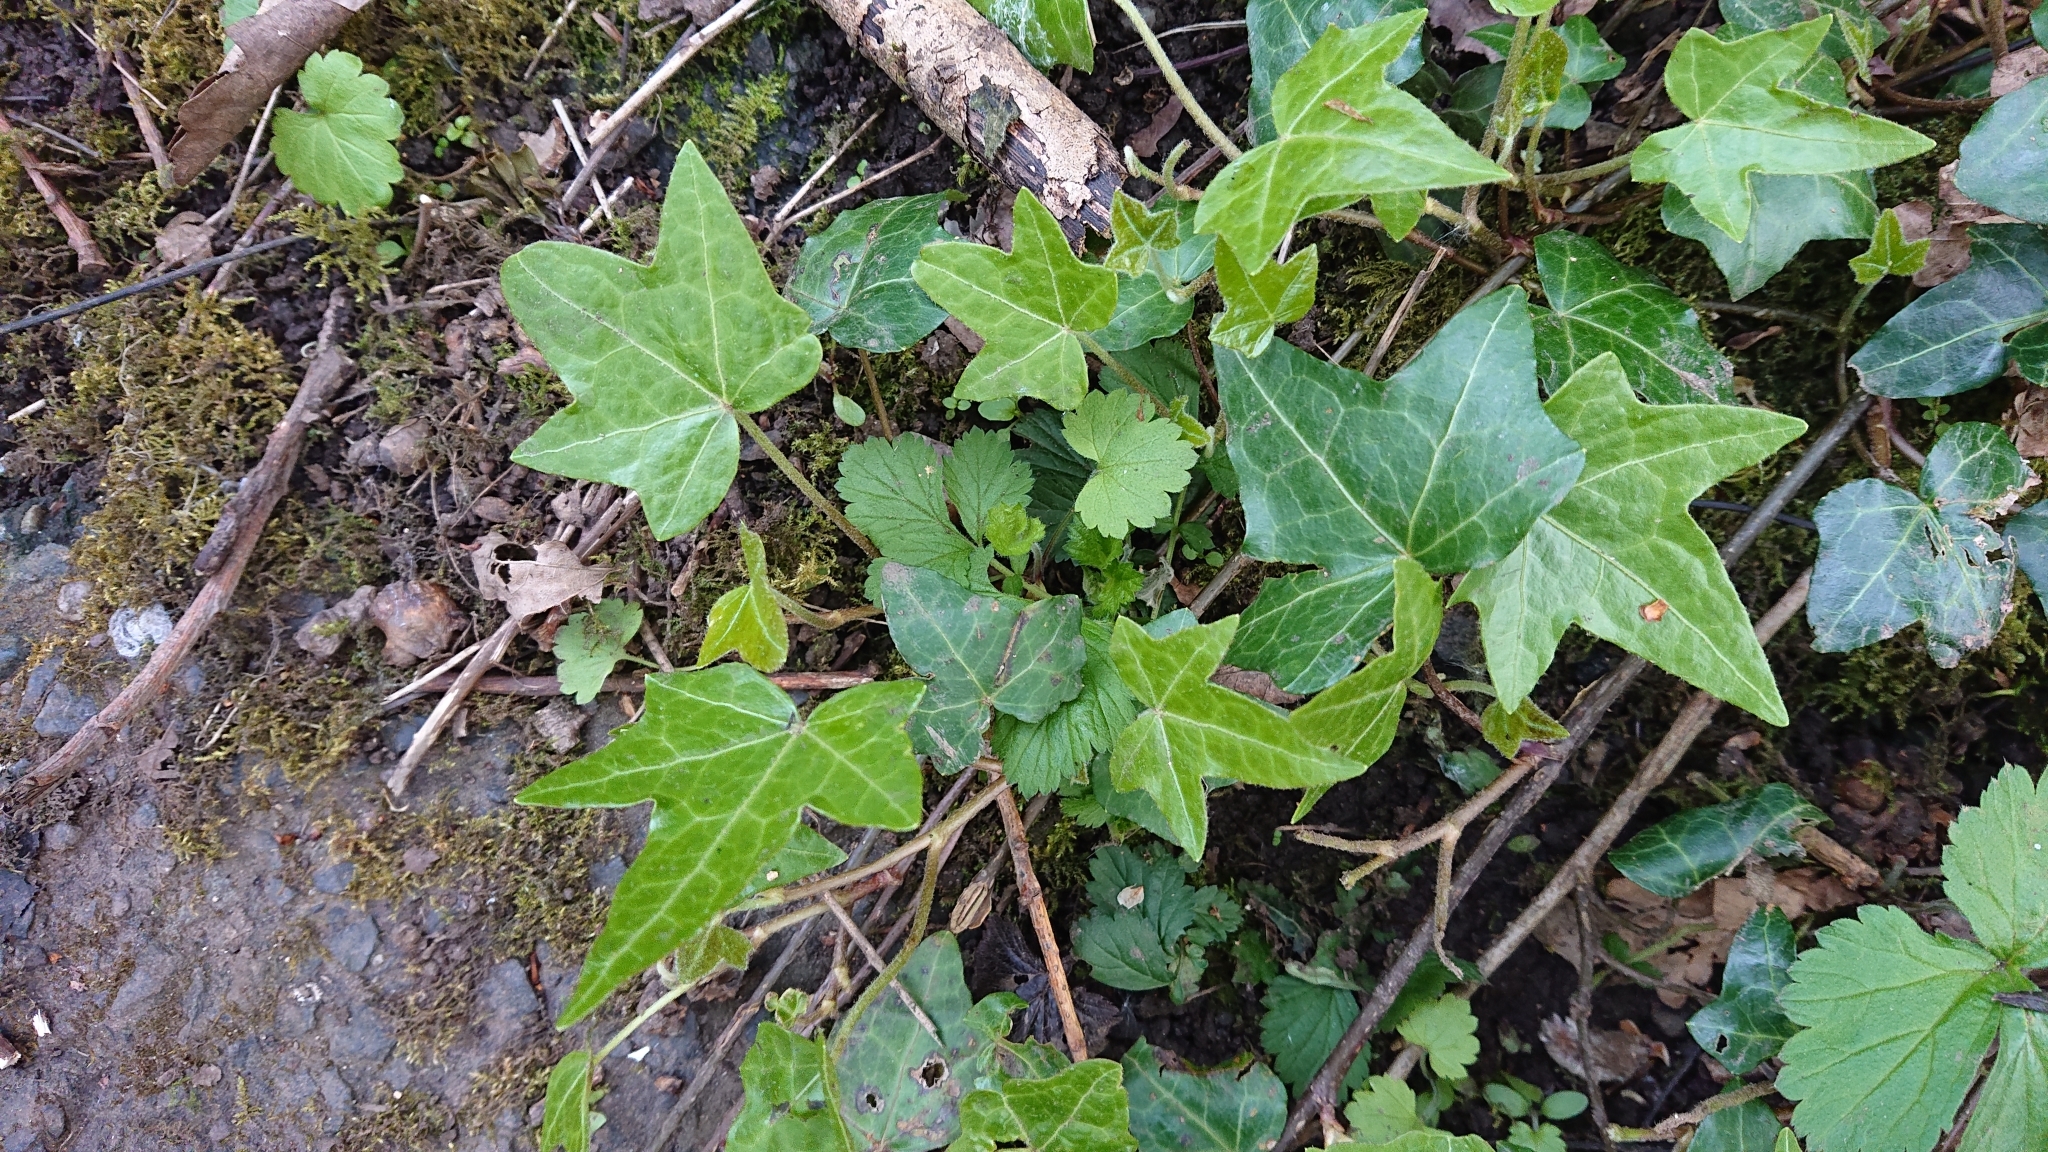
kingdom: Plantae
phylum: Tracheophyta
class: Magnoliopsida
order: Apiales
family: Araliaceae
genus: Hedera
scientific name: Hedera helix
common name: Ivy
